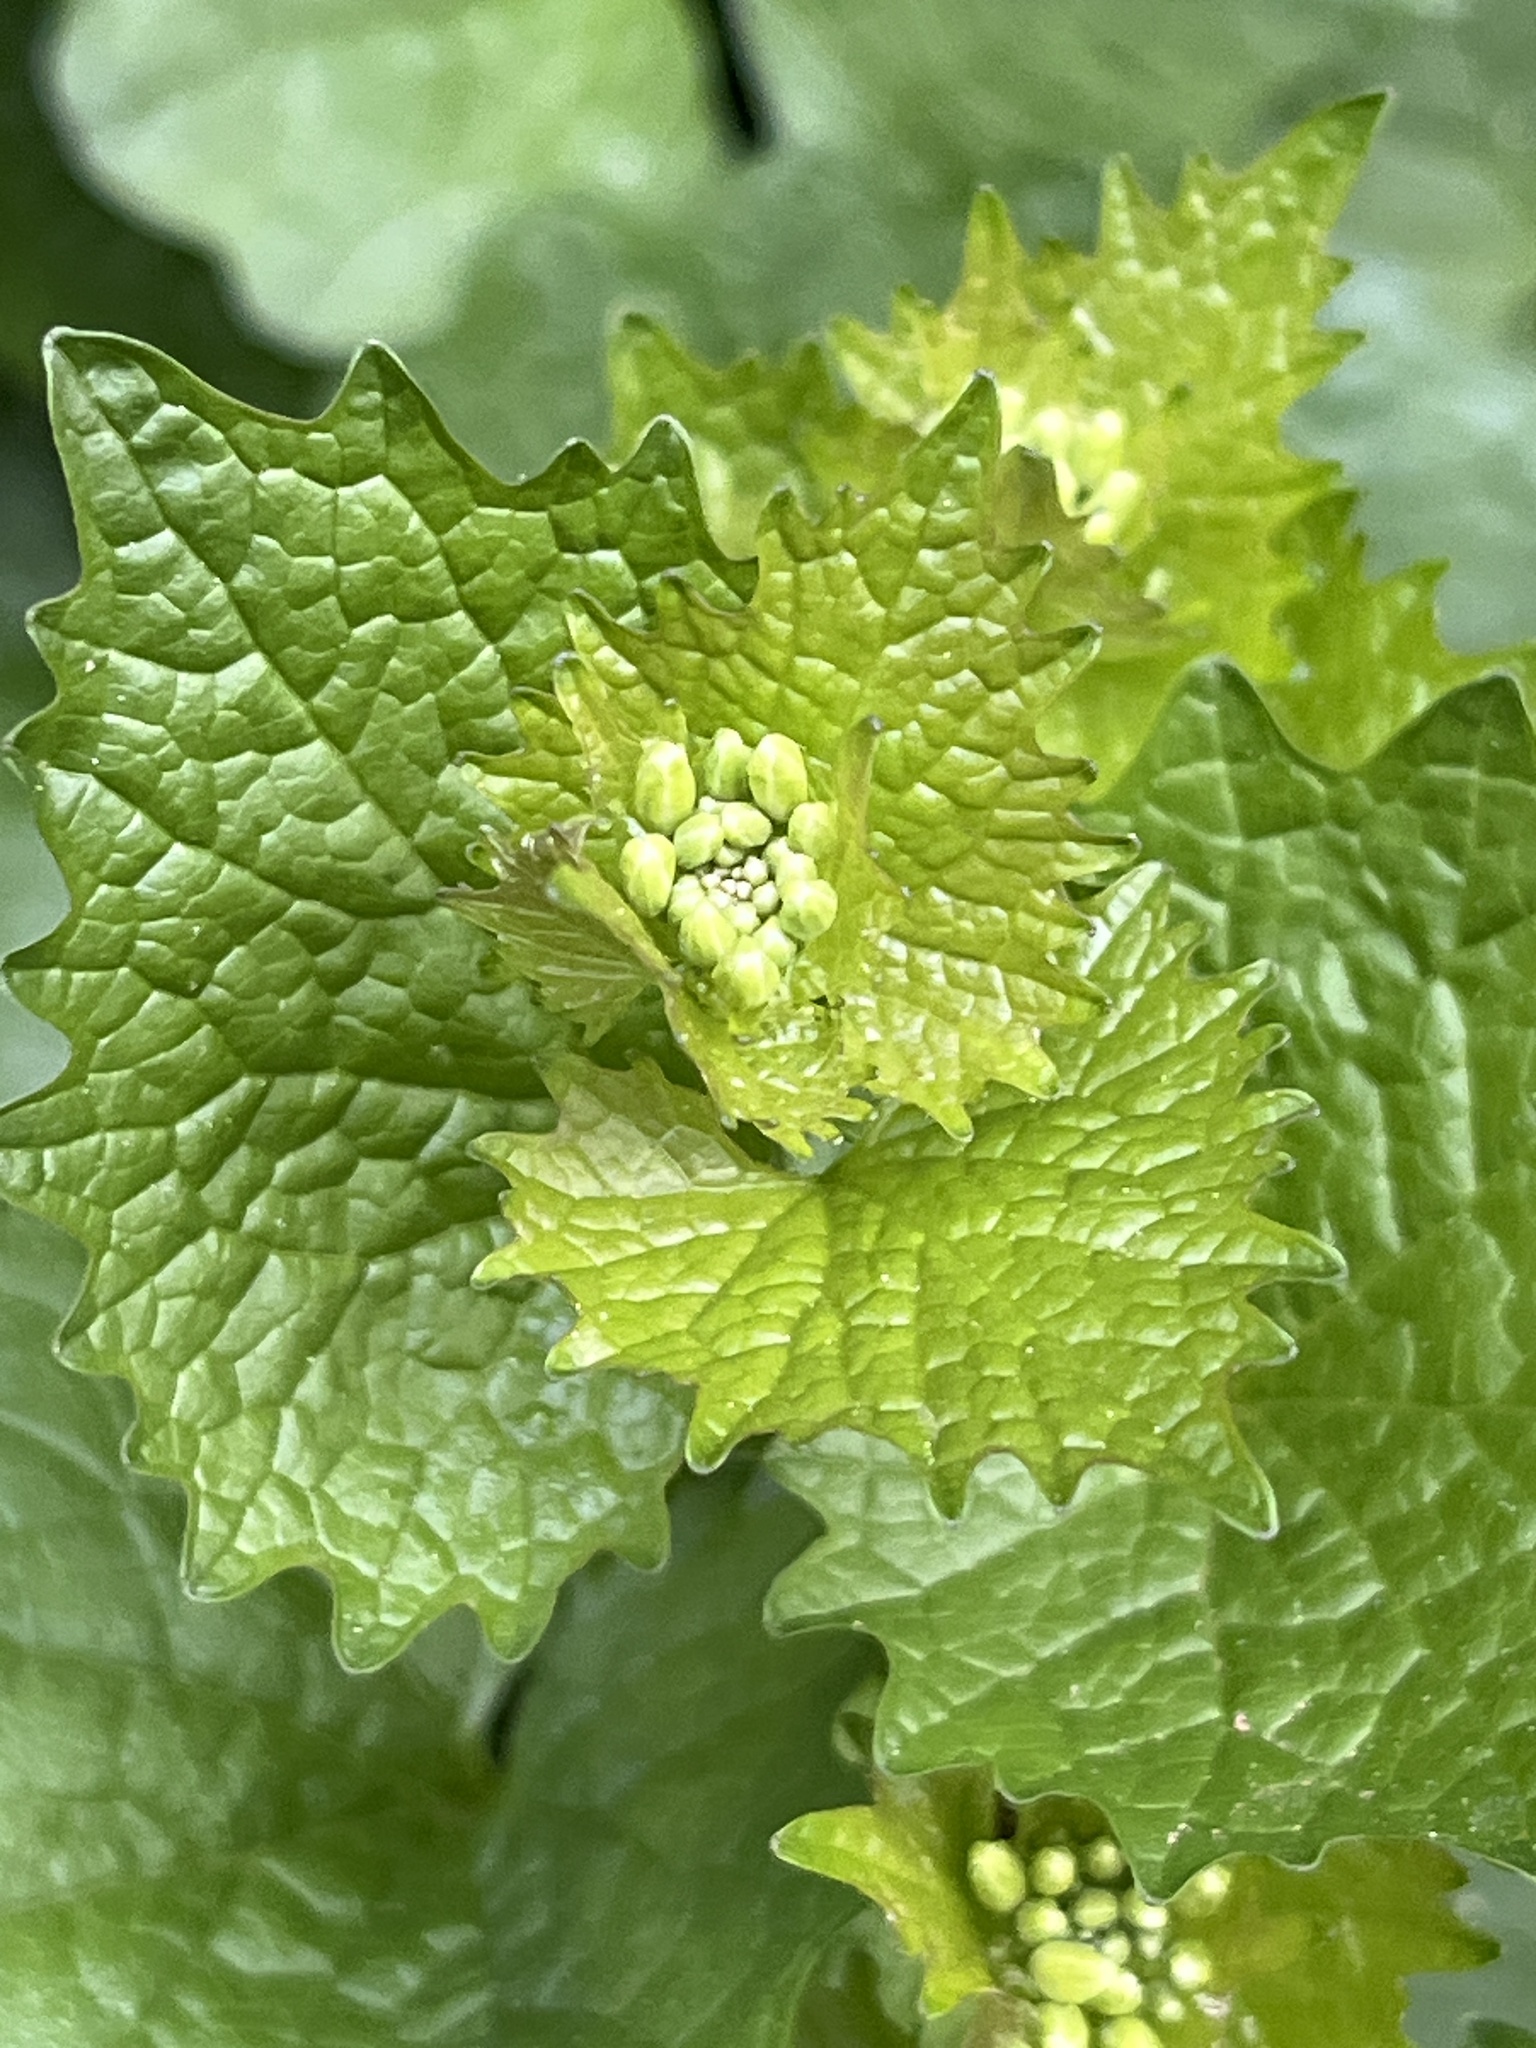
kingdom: Plantae
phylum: Tracheophyta
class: Magnoliopsida
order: Brassicales
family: Brassicaceae
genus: Alliaria
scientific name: Alliaria petiolata
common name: Garlic mustard
